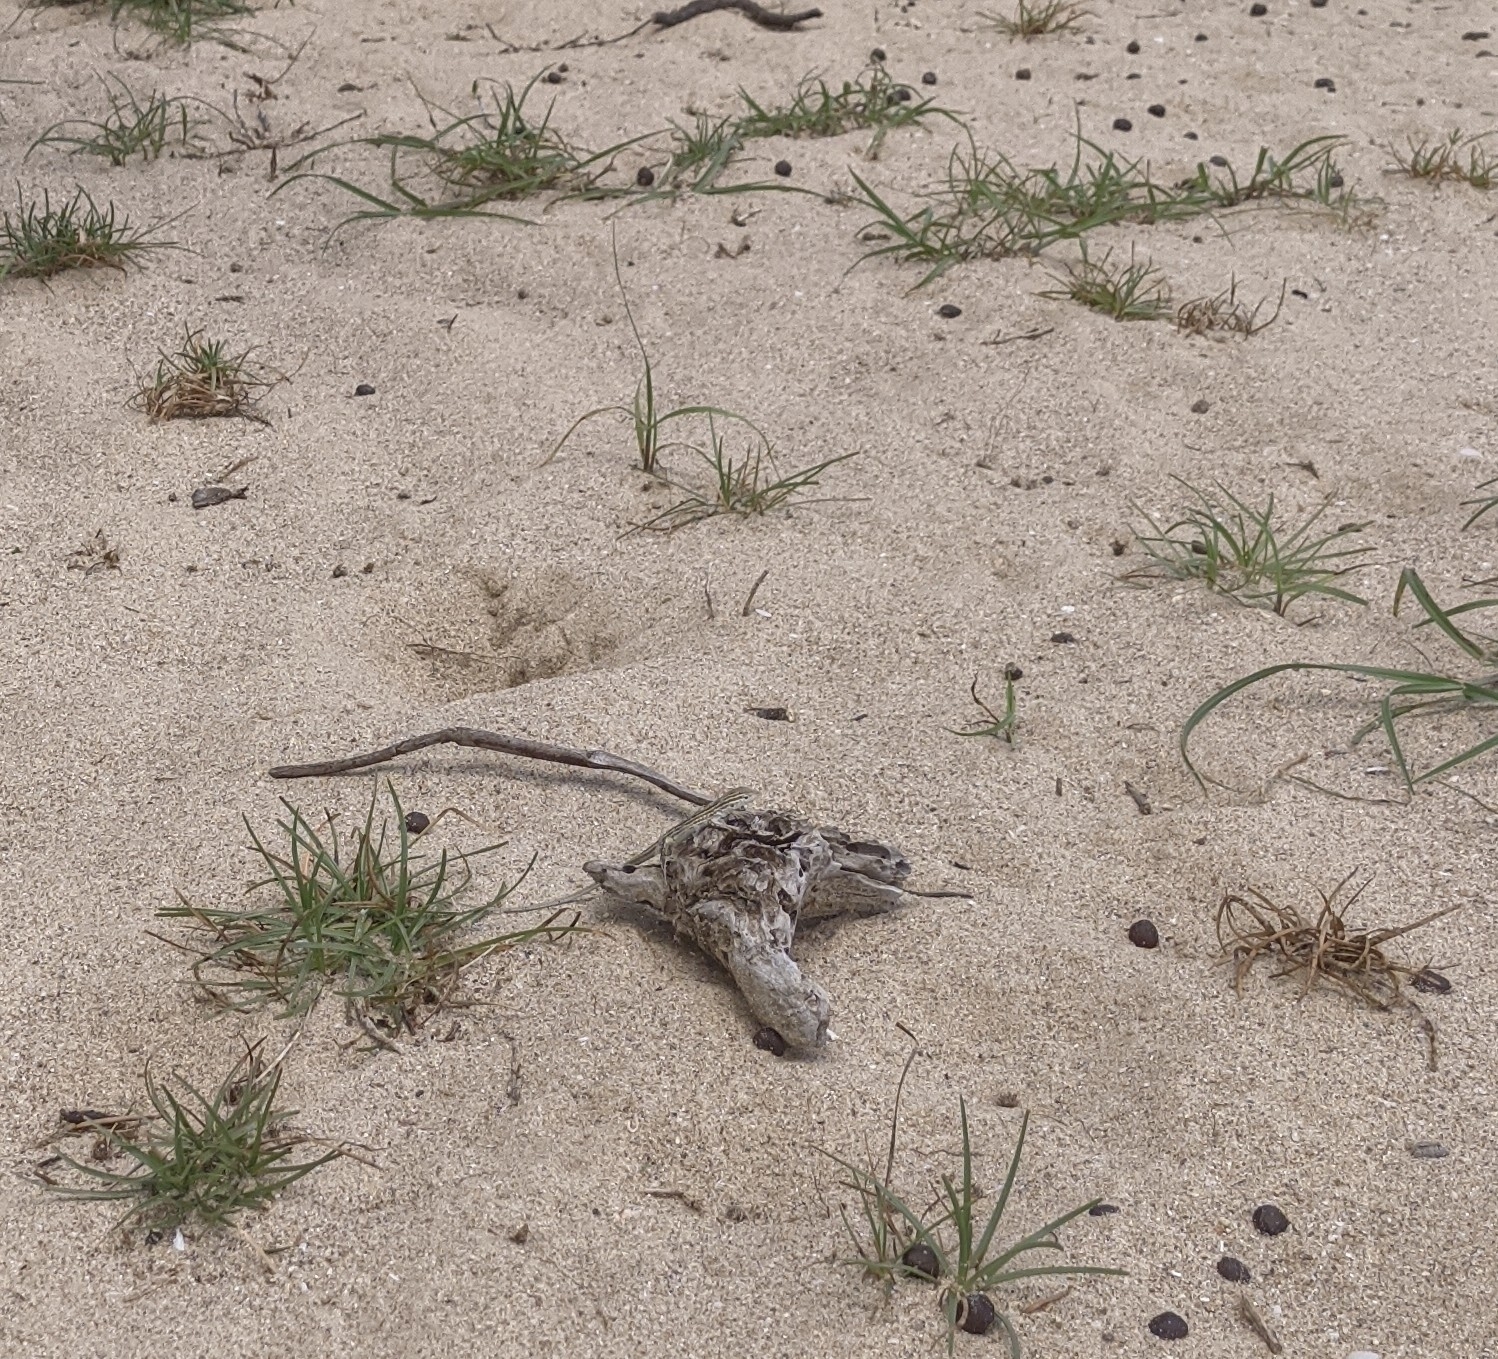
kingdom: Animalia
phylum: Chordata
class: Squamata
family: Teiidae
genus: Cnemidophorus
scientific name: Cnemidophorus gaigei
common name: Gaige’s rainbow lizard
